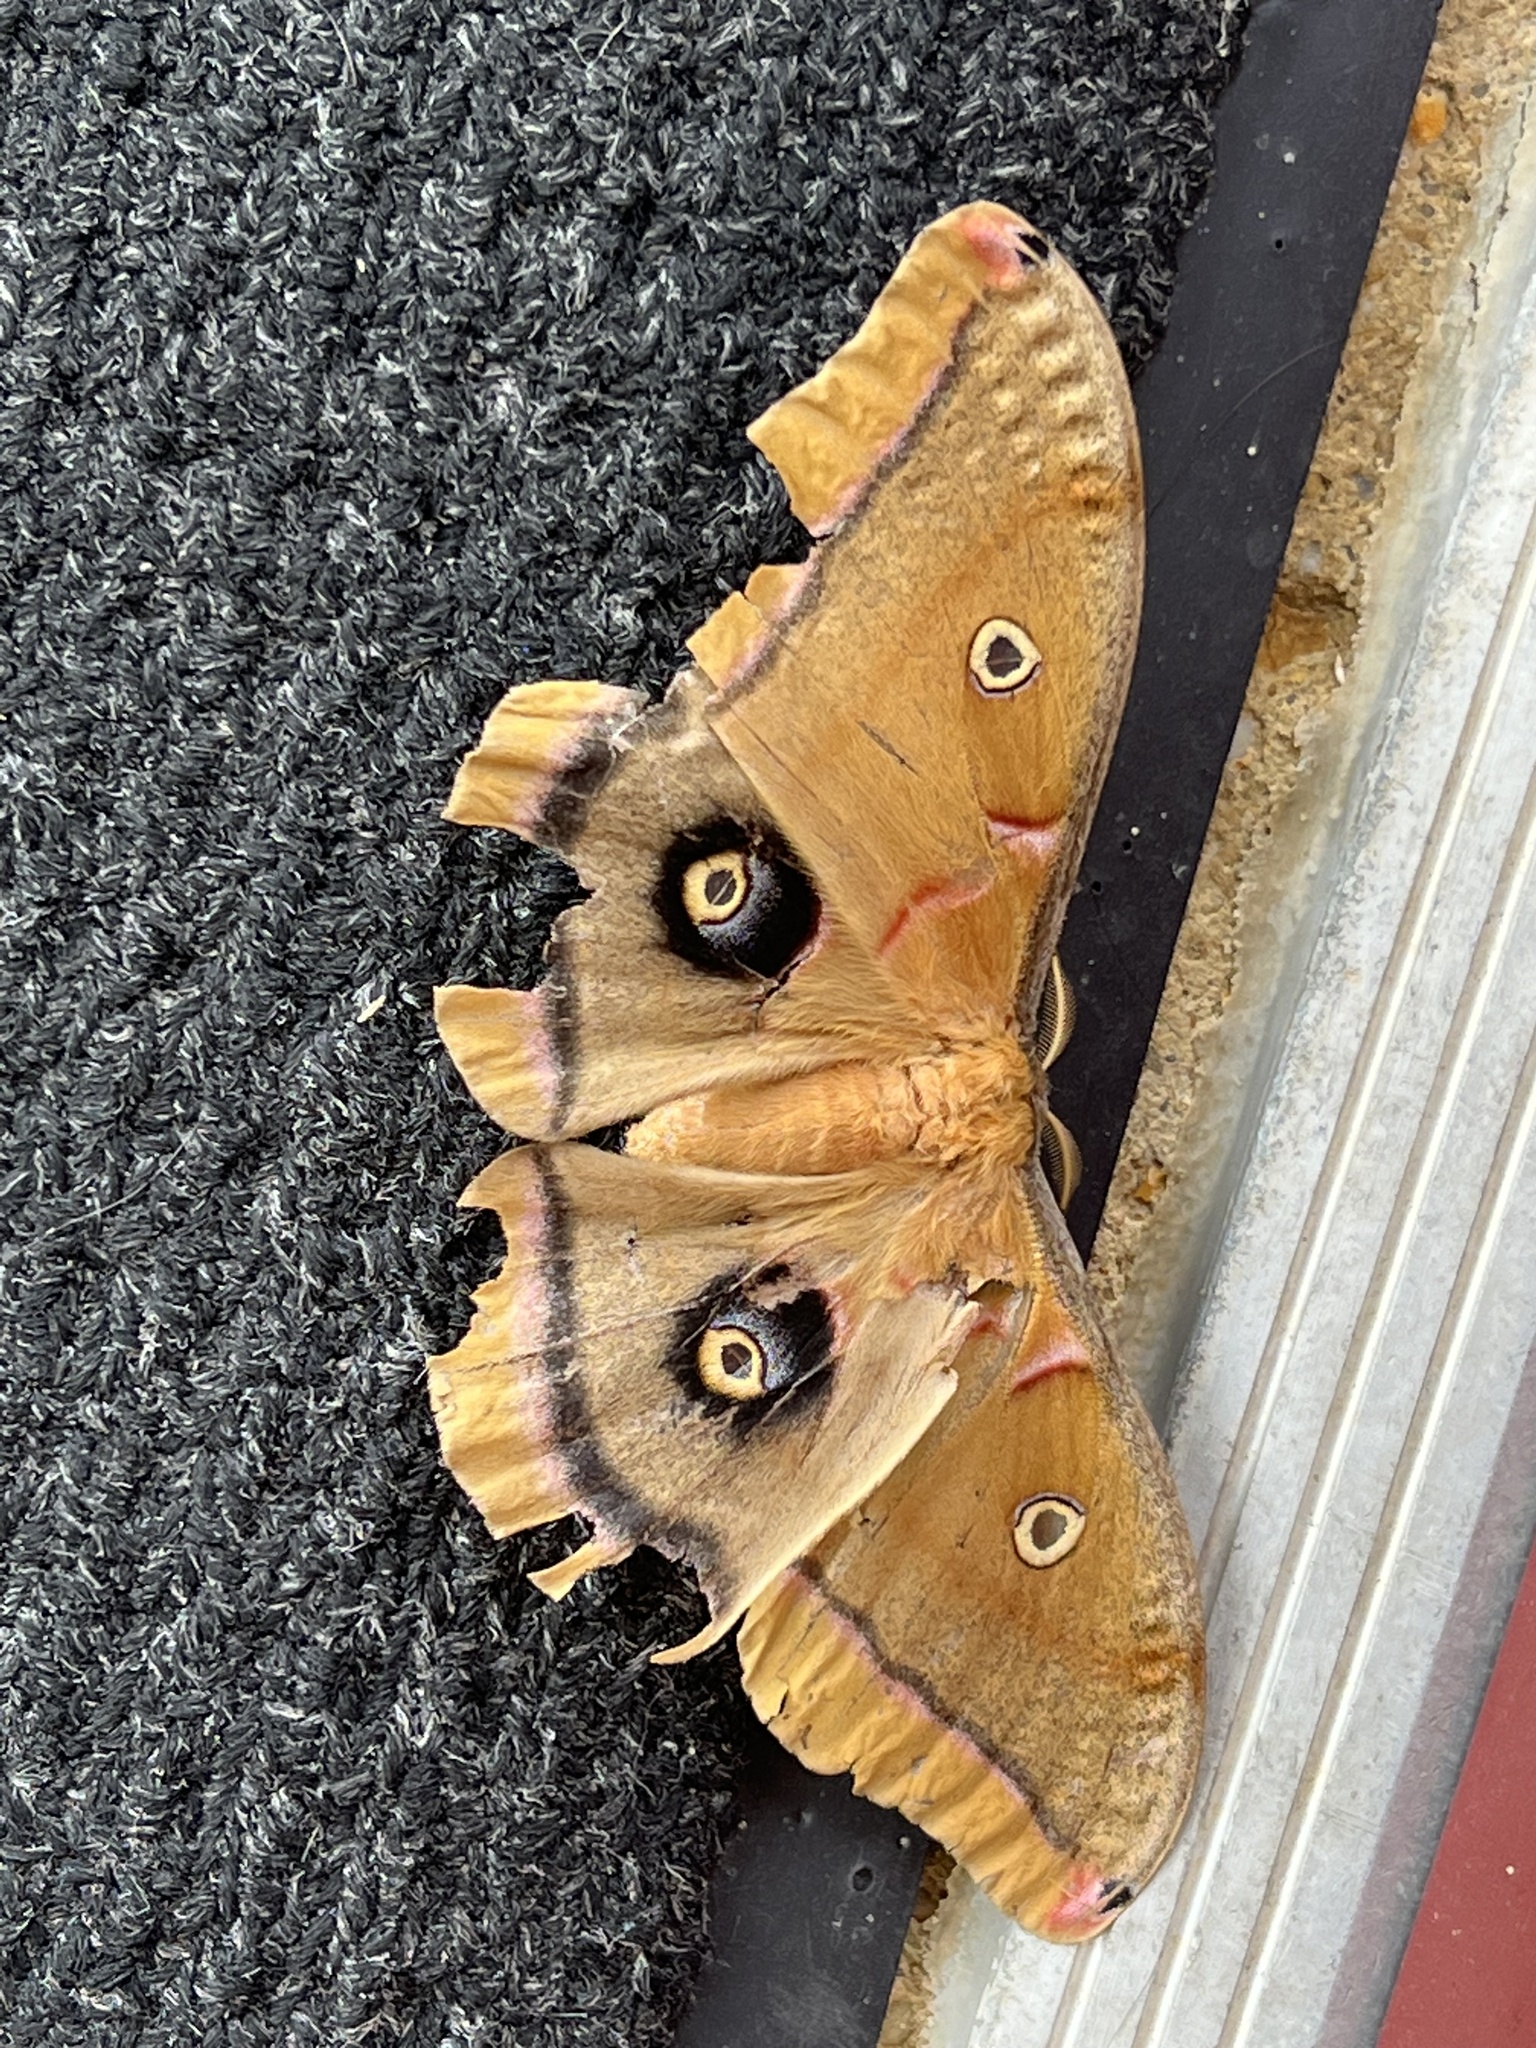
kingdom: Animalia
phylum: Arthropoda
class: Insecta
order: Lepidoptera
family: Saturniidae
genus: Antheraea
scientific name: Antheraea polyphemus
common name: Polyphemus moth
